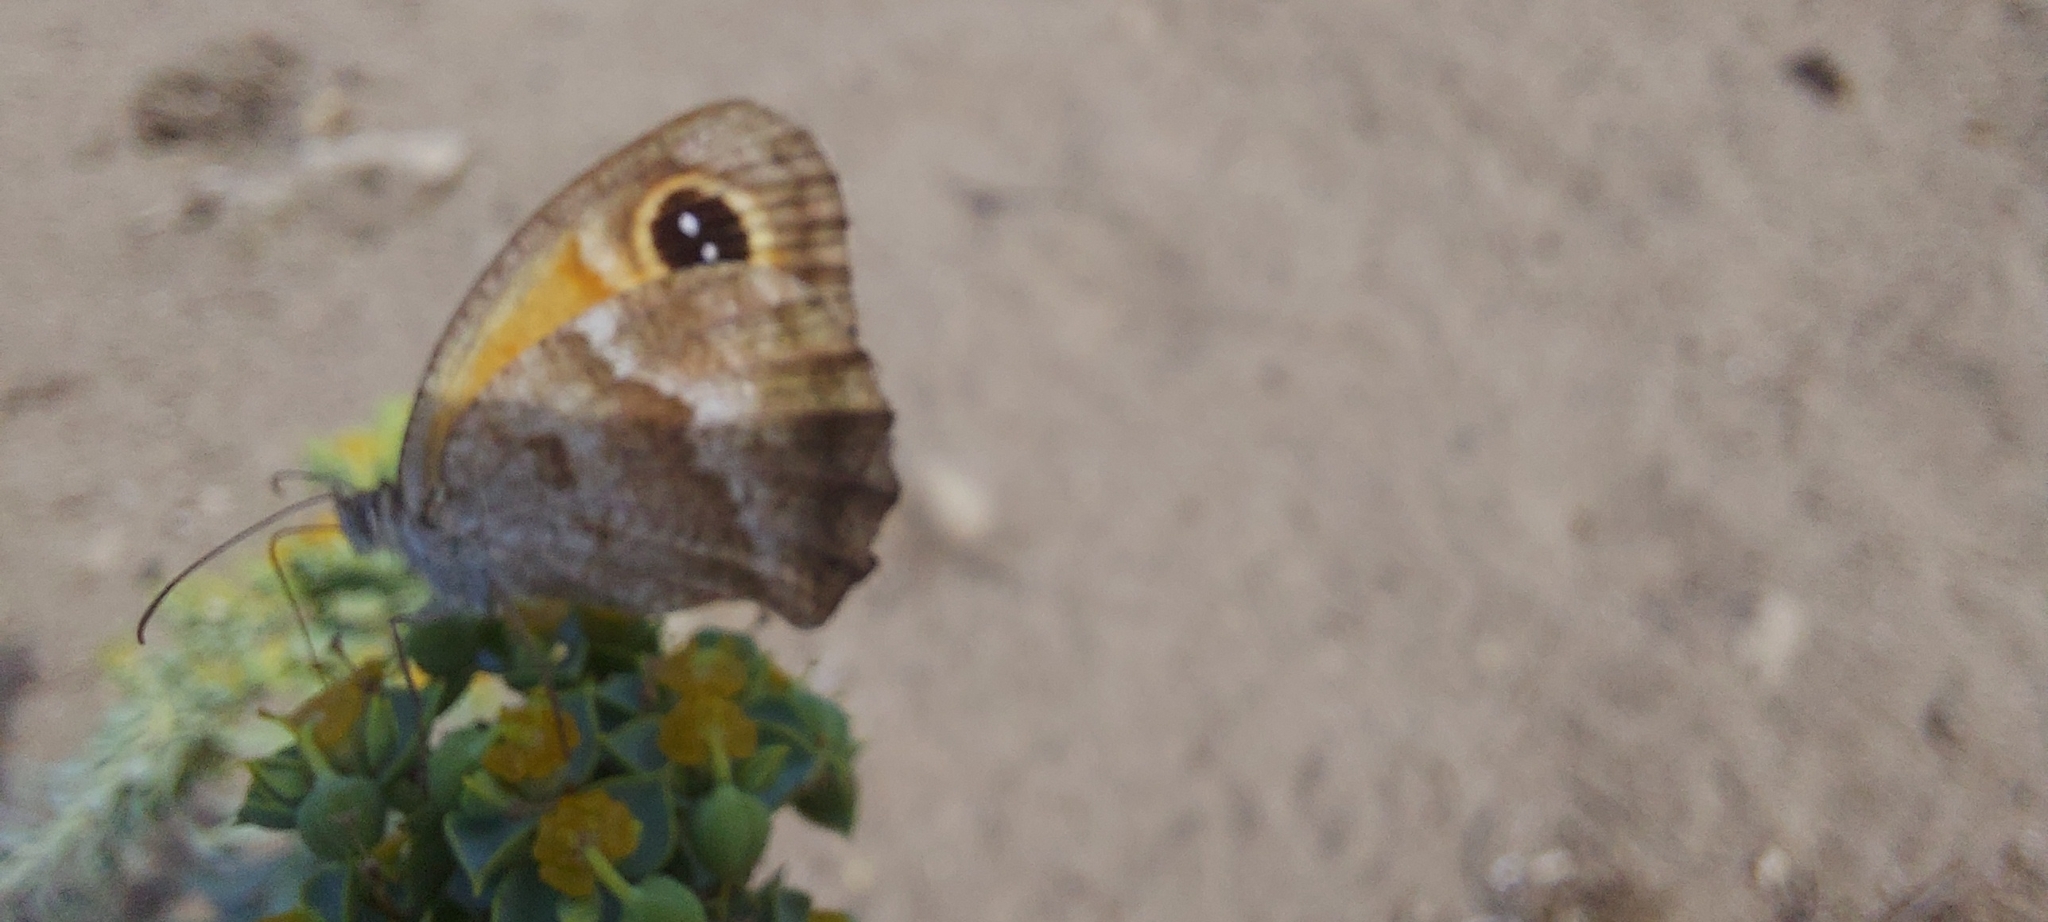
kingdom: Animalia
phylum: Arthropoda
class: Insecta
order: Lepidoptera
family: Nymphalidae
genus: Pyronia
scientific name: Pyronia cecilia
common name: Southern gatekeeper
